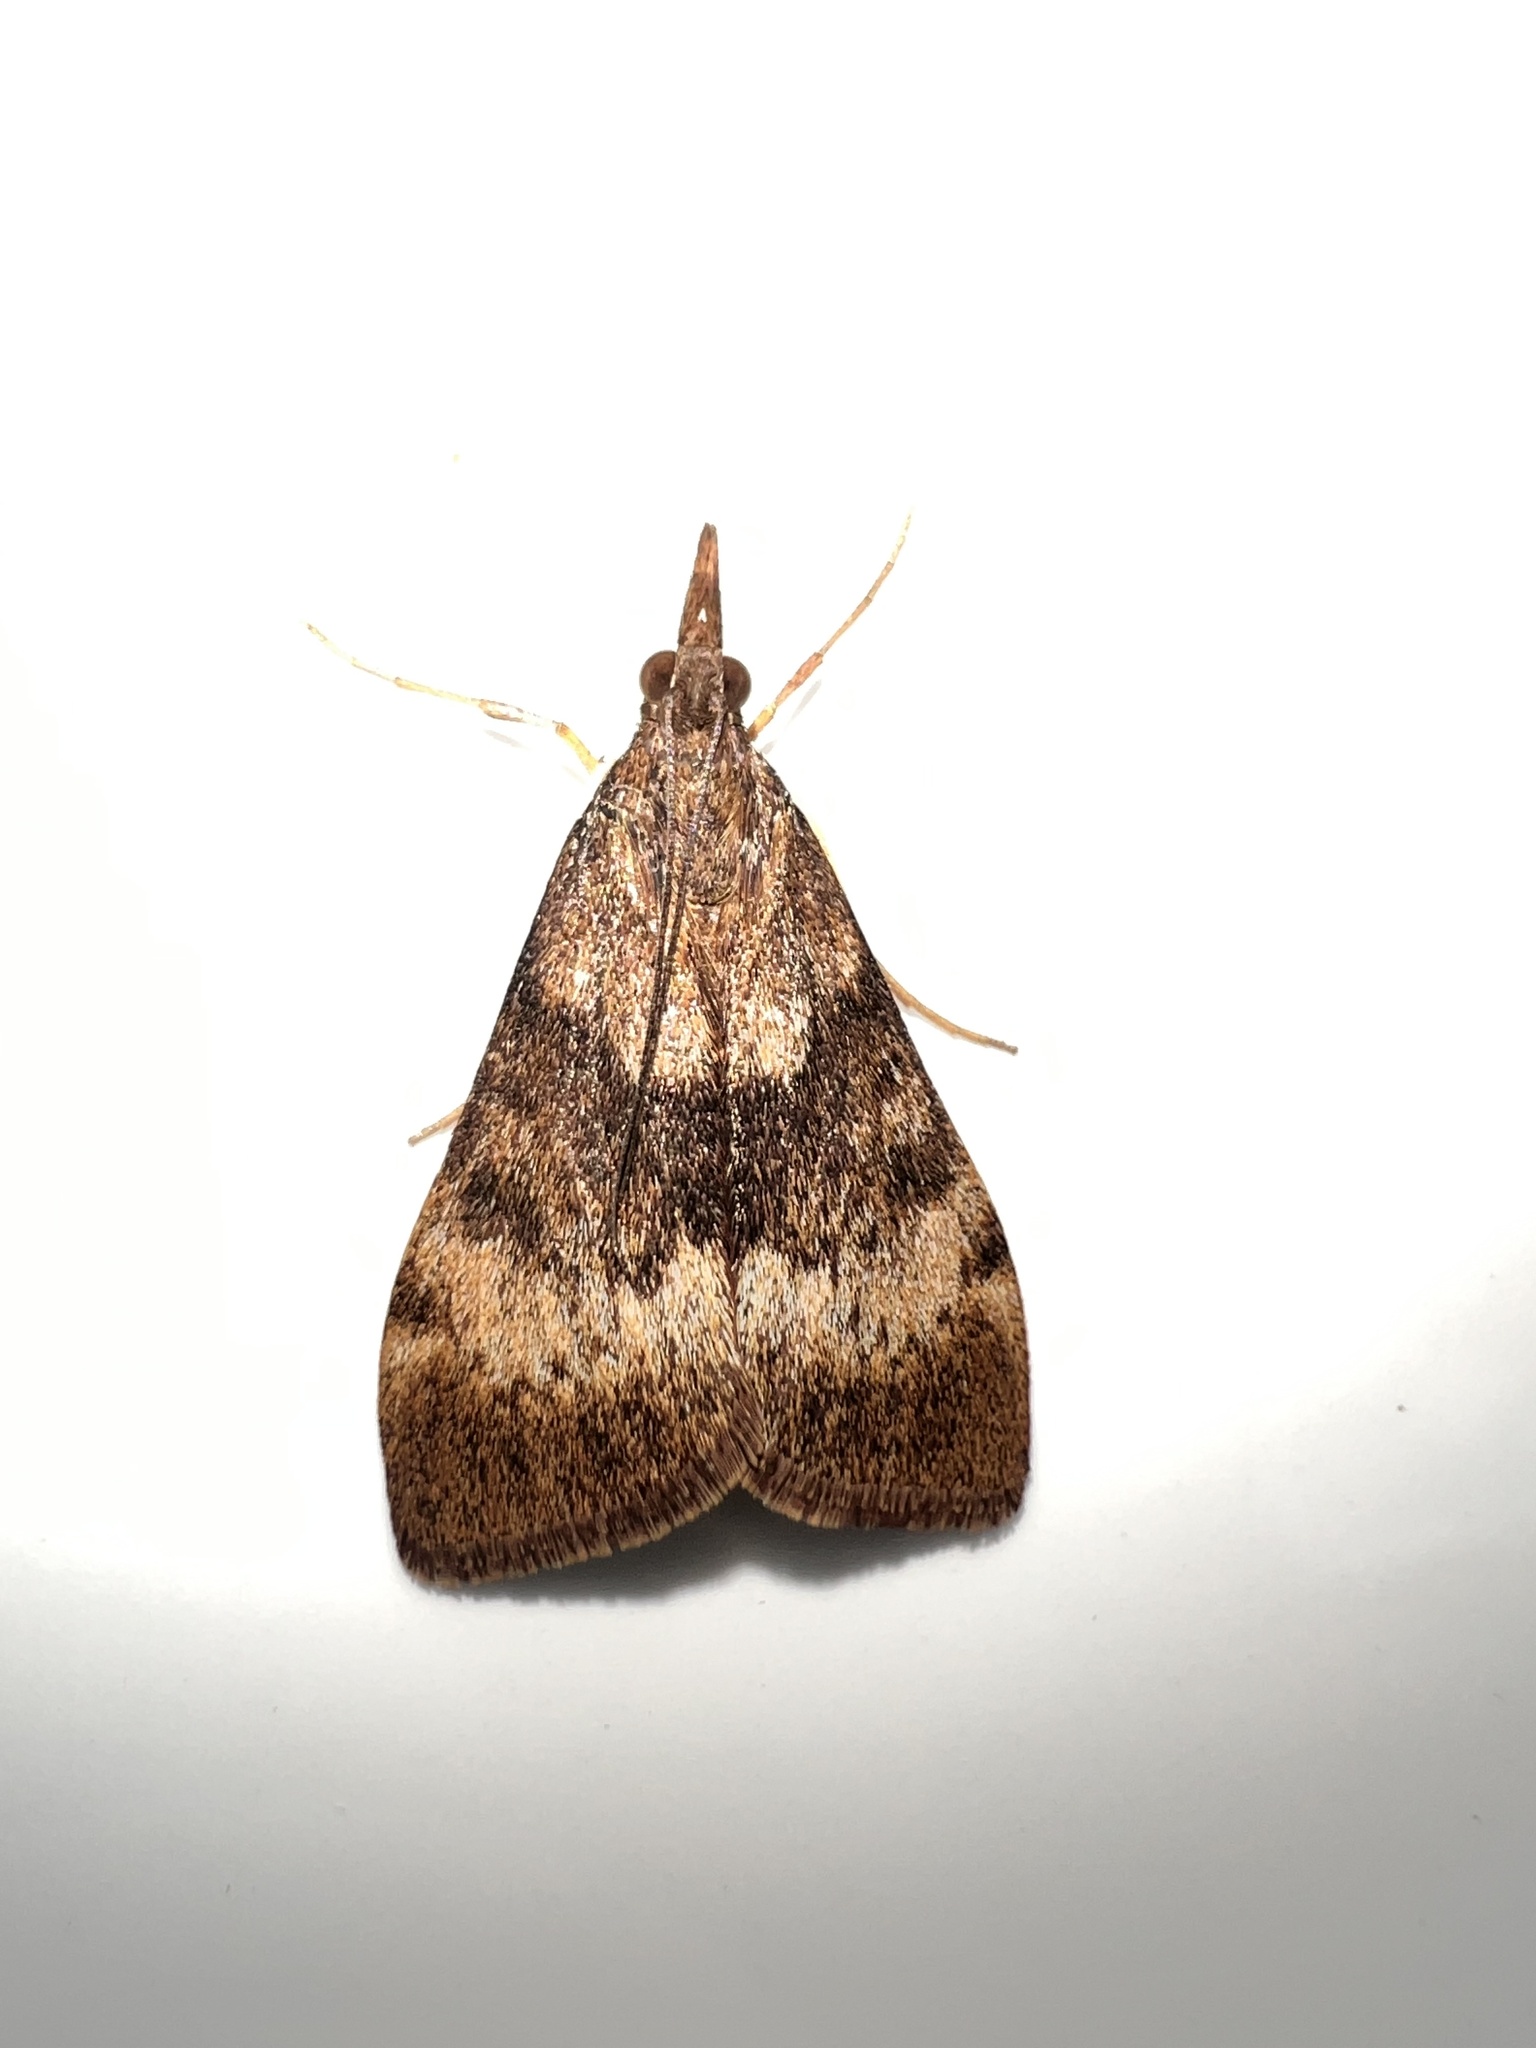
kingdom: Animalia
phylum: Arthropoda
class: Insecta
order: Lepidoptera
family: Crambidae
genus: Uresiphita
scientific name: Uresiphita
